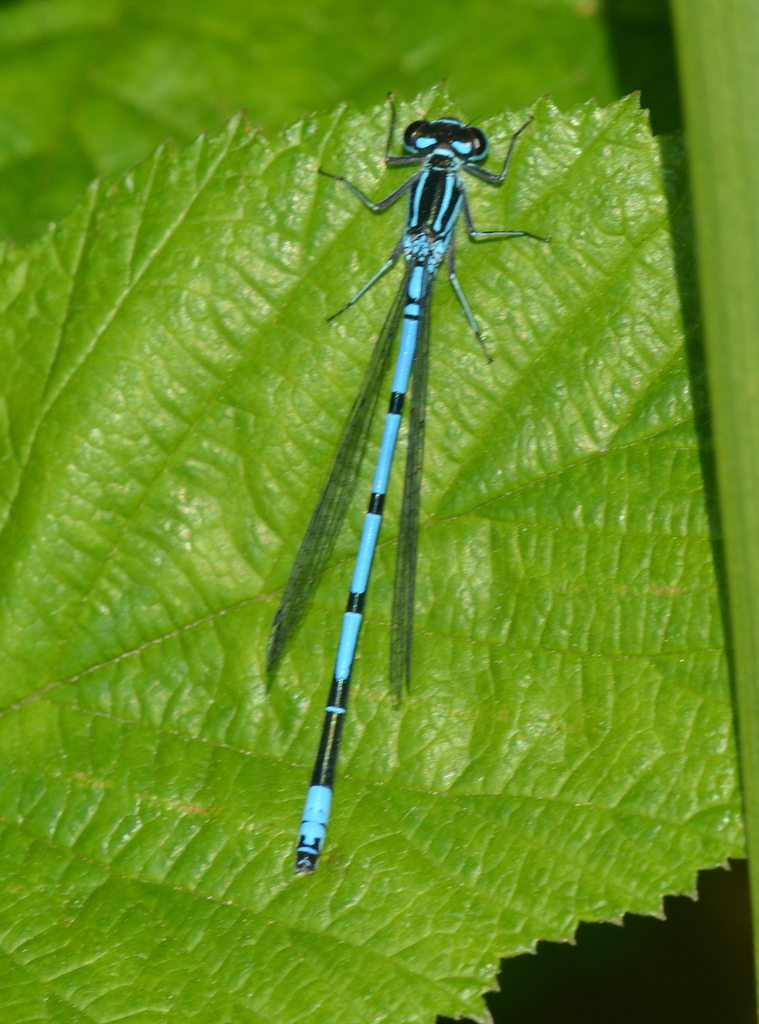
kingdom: Animalia
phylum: Arthropoda
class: Insecta
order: Odonata
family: Coenagrionidae
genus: Coenagrion
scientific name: Coenagrion puella
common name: Azure damselfly
